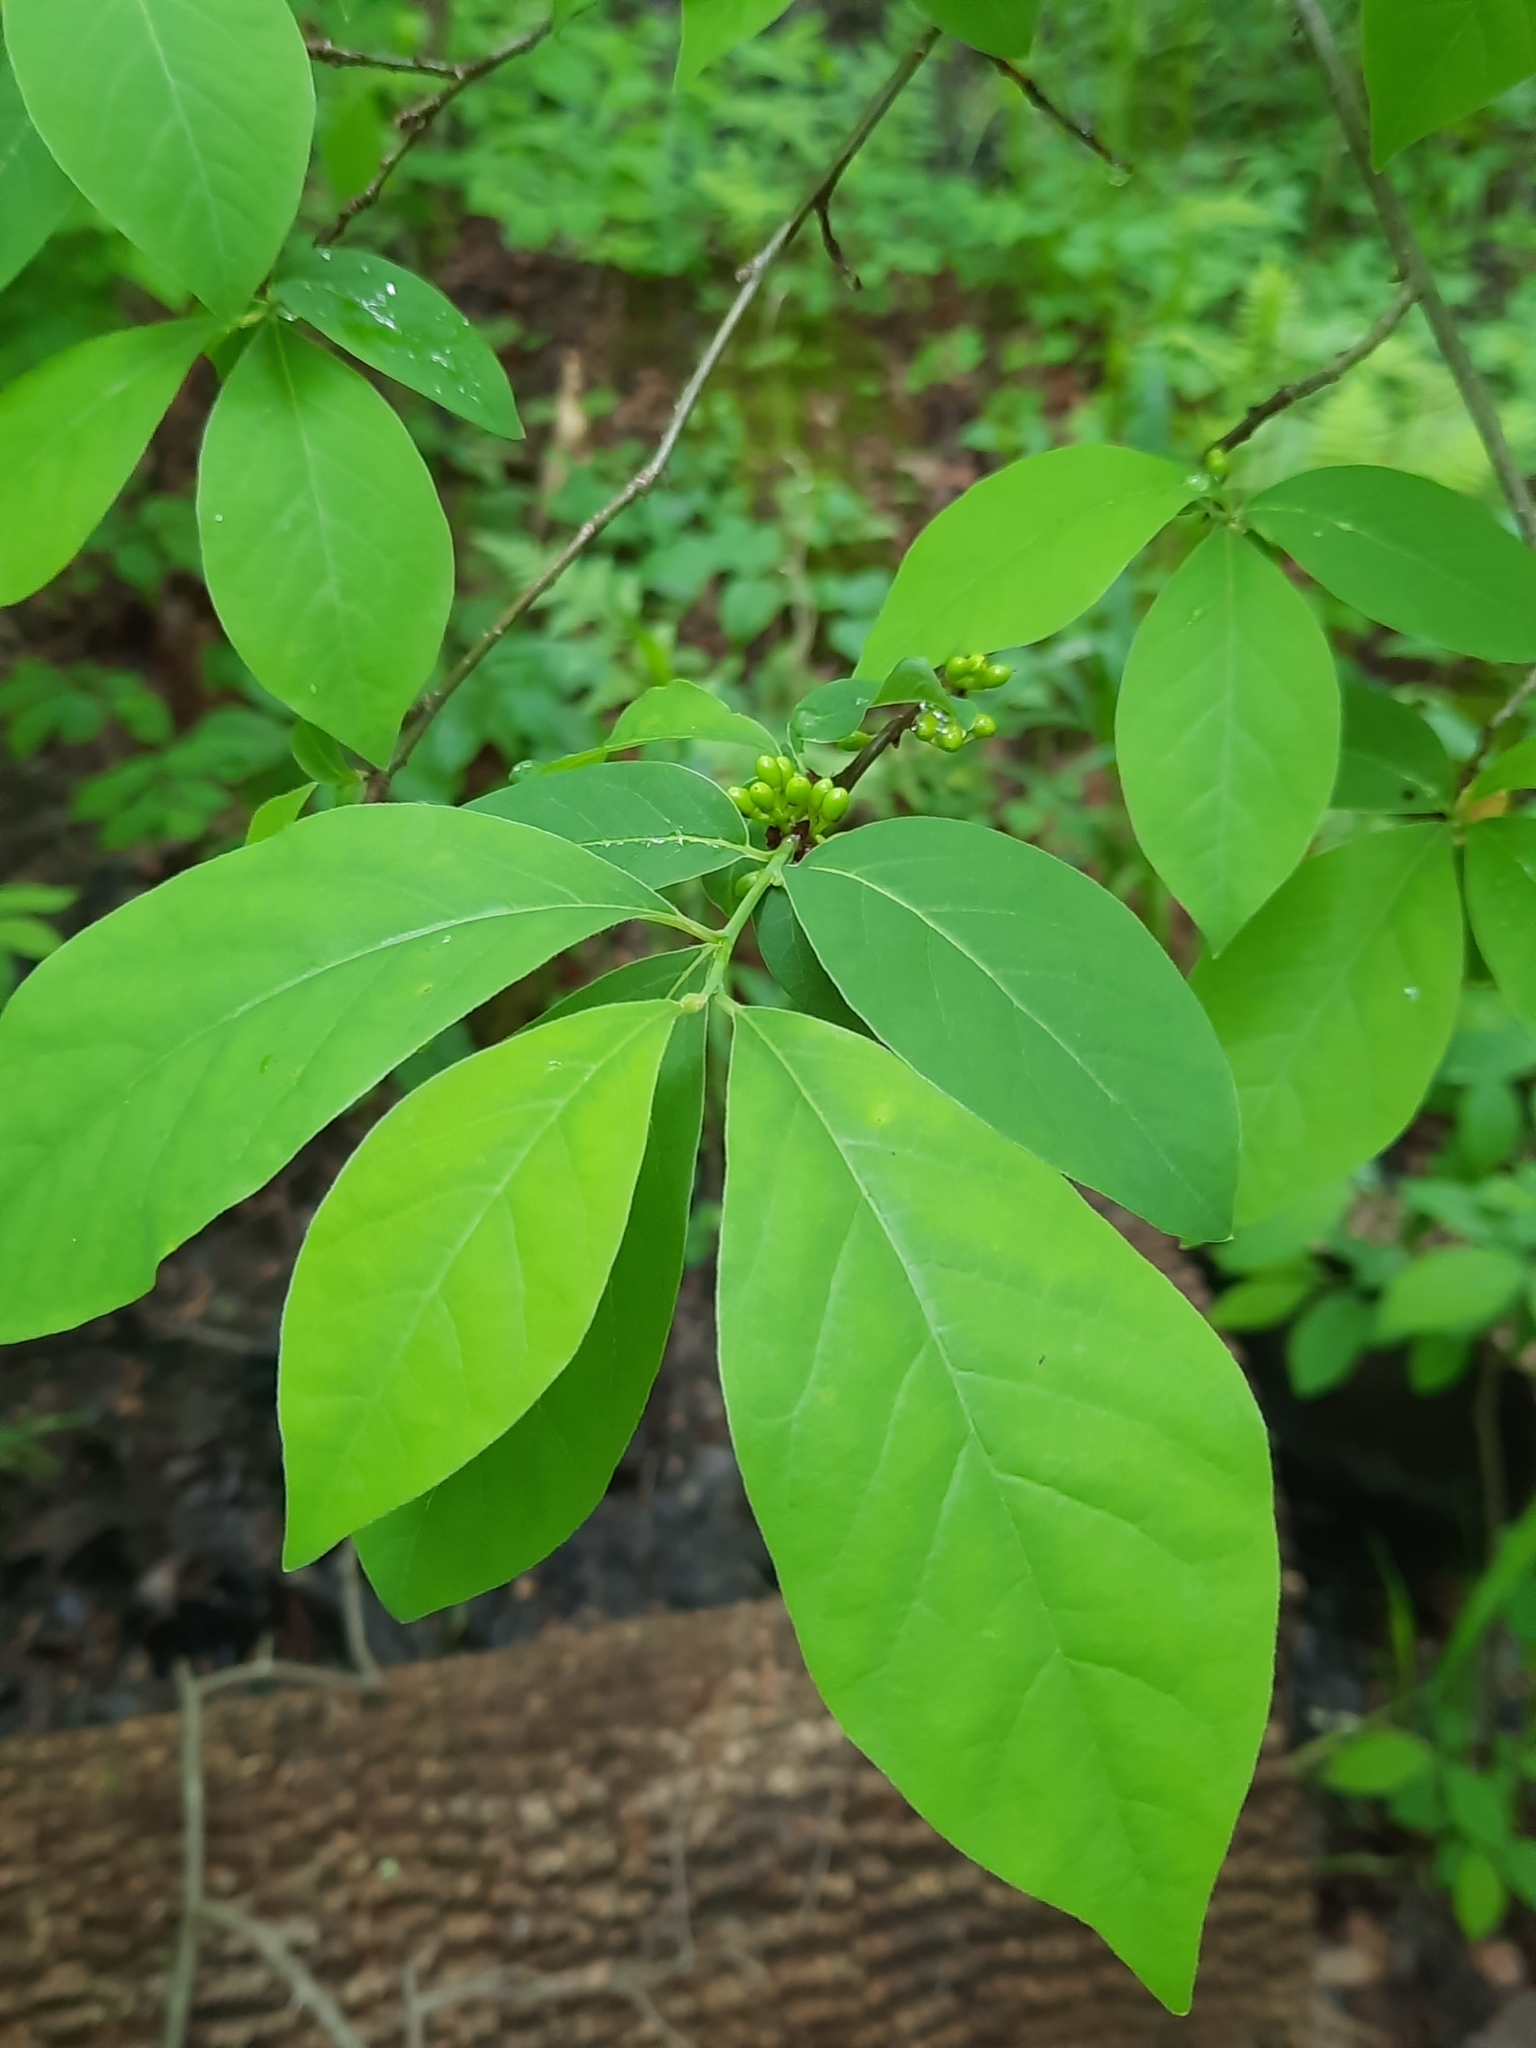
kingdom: Plantae
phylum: Tracheophyta
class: Magnoliopsida
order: Laurales
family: Lauraceae
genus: Lindera
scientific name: Lindera benzoin
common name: Spicebush
